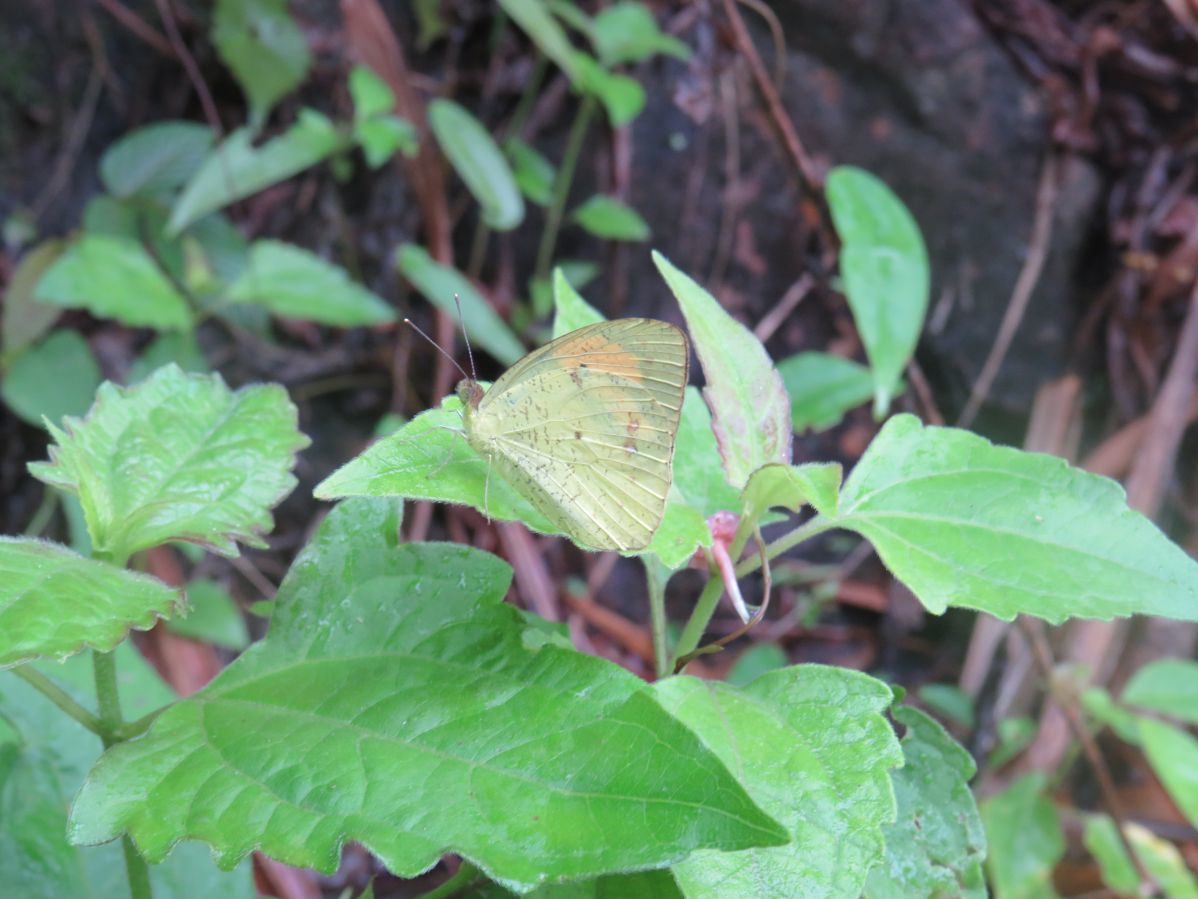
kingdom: Animalia
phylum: Arthropoda
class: Insecta
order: Lepidoptera
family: Pieridae
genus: Ixias
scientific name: Ixias pyrene
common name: Yellow orange tip
